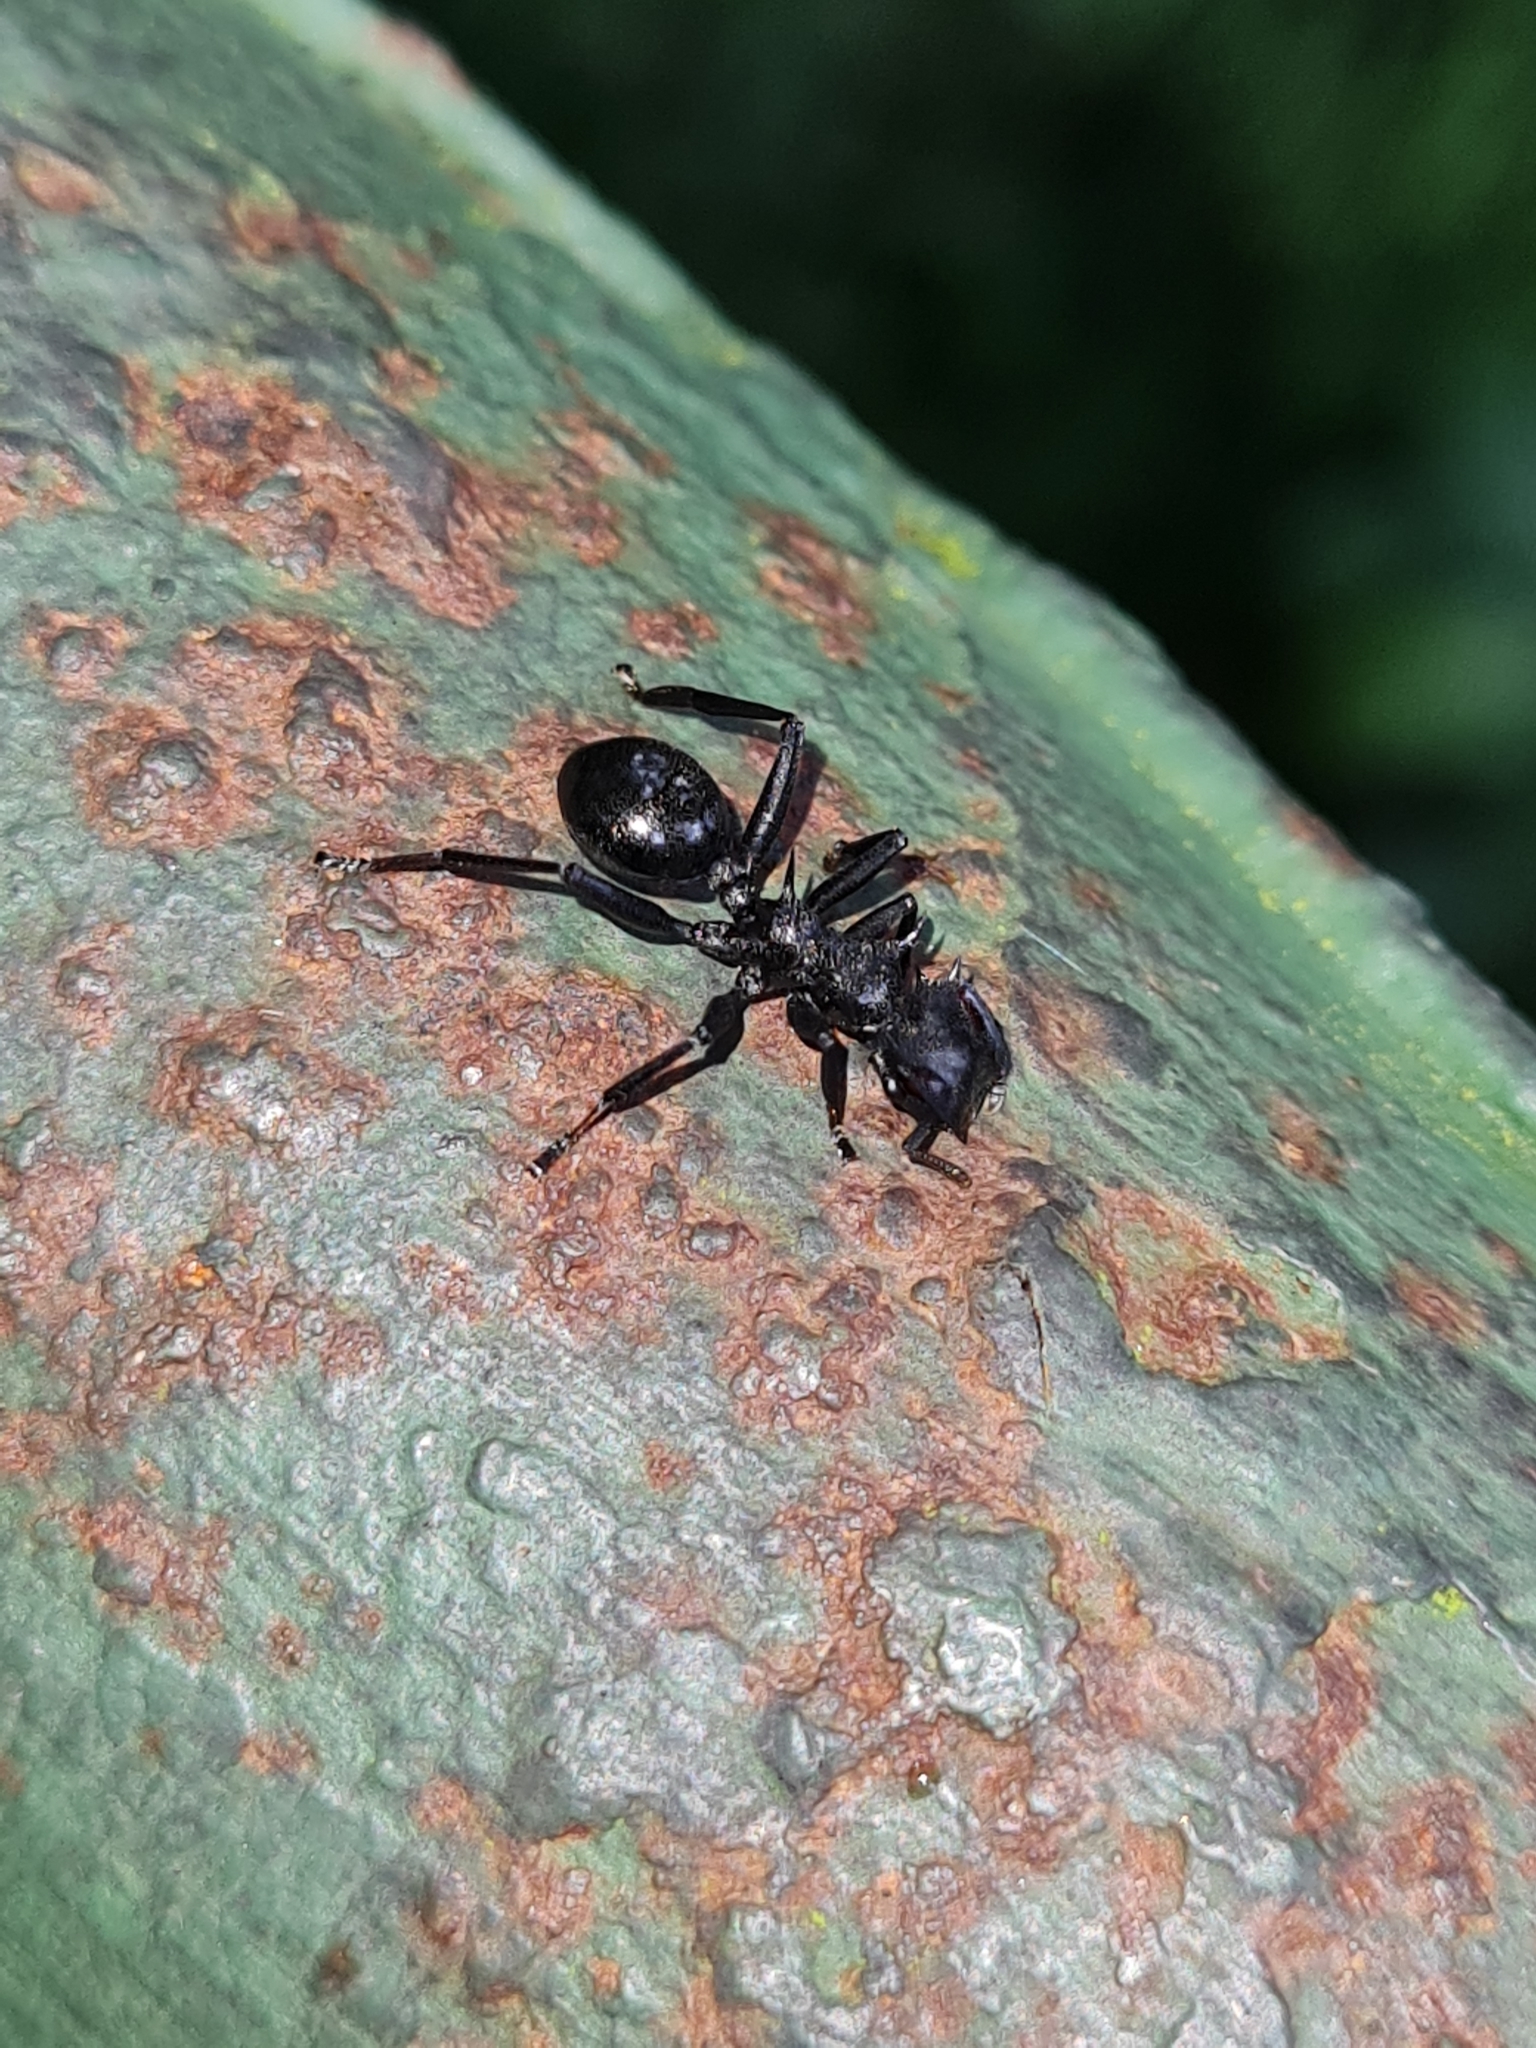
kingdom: Animalia
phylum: Arthropoda
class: Insecta
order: Hymenoptera
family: Formicidae
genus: Cephalotes
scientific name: Cephalotes atratus
